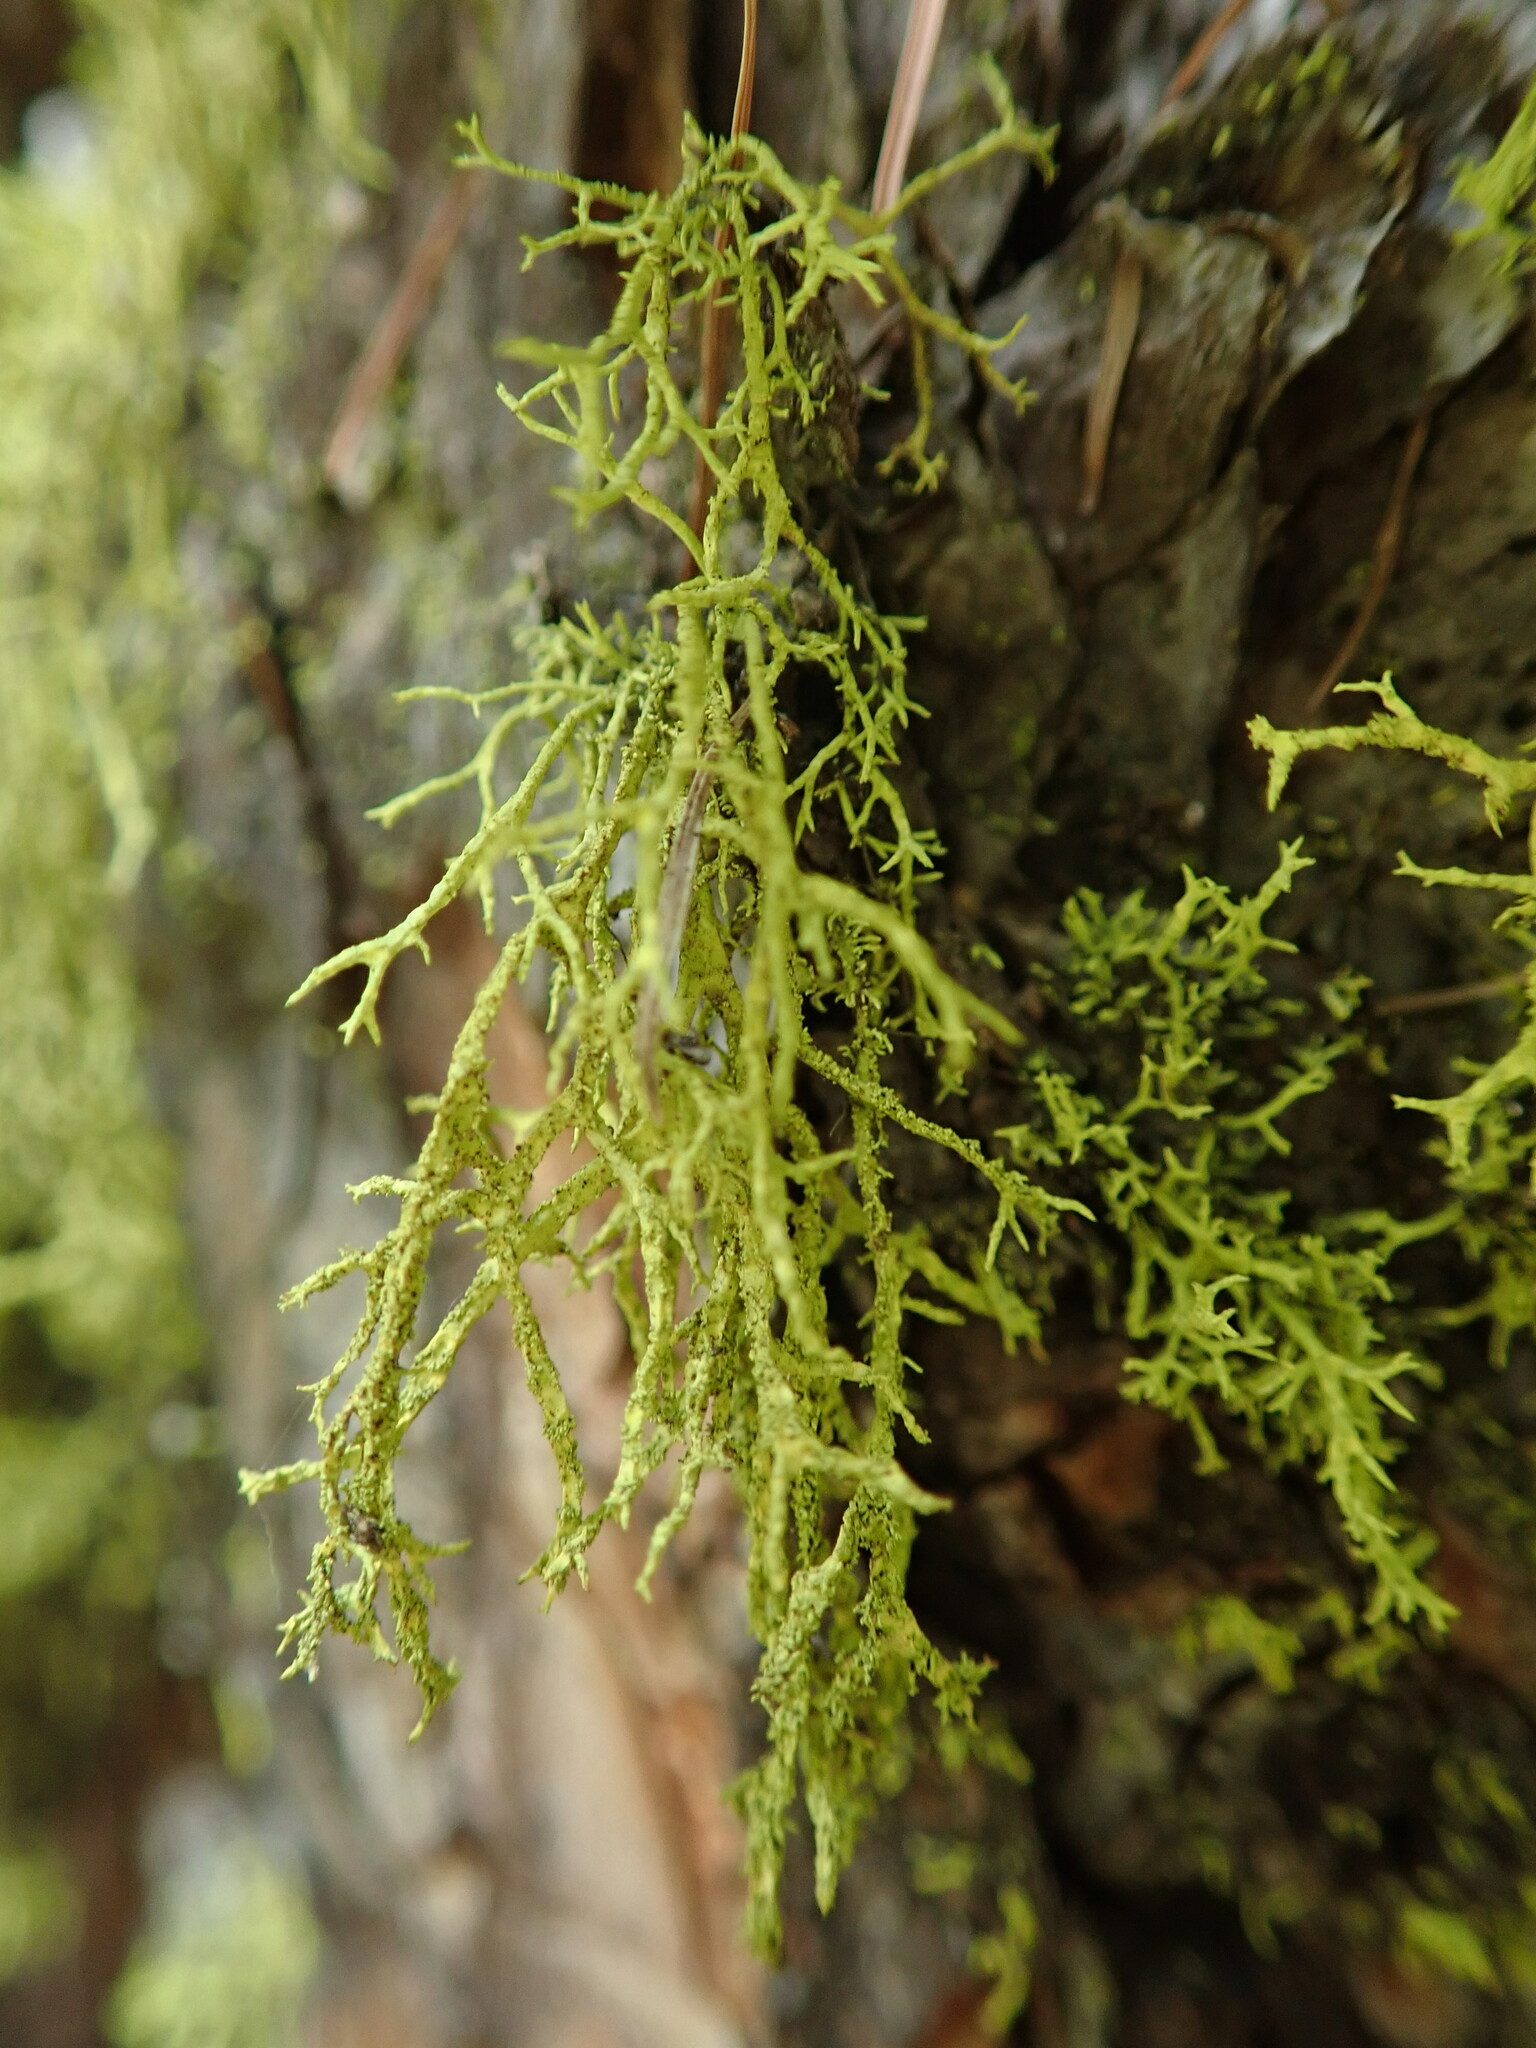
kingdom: Fungi
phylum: Ascomycota
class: Lecanoromycetes
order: Lecanorales
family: Parmeliaceae
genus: Letharia
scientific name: Letharia vulpina
